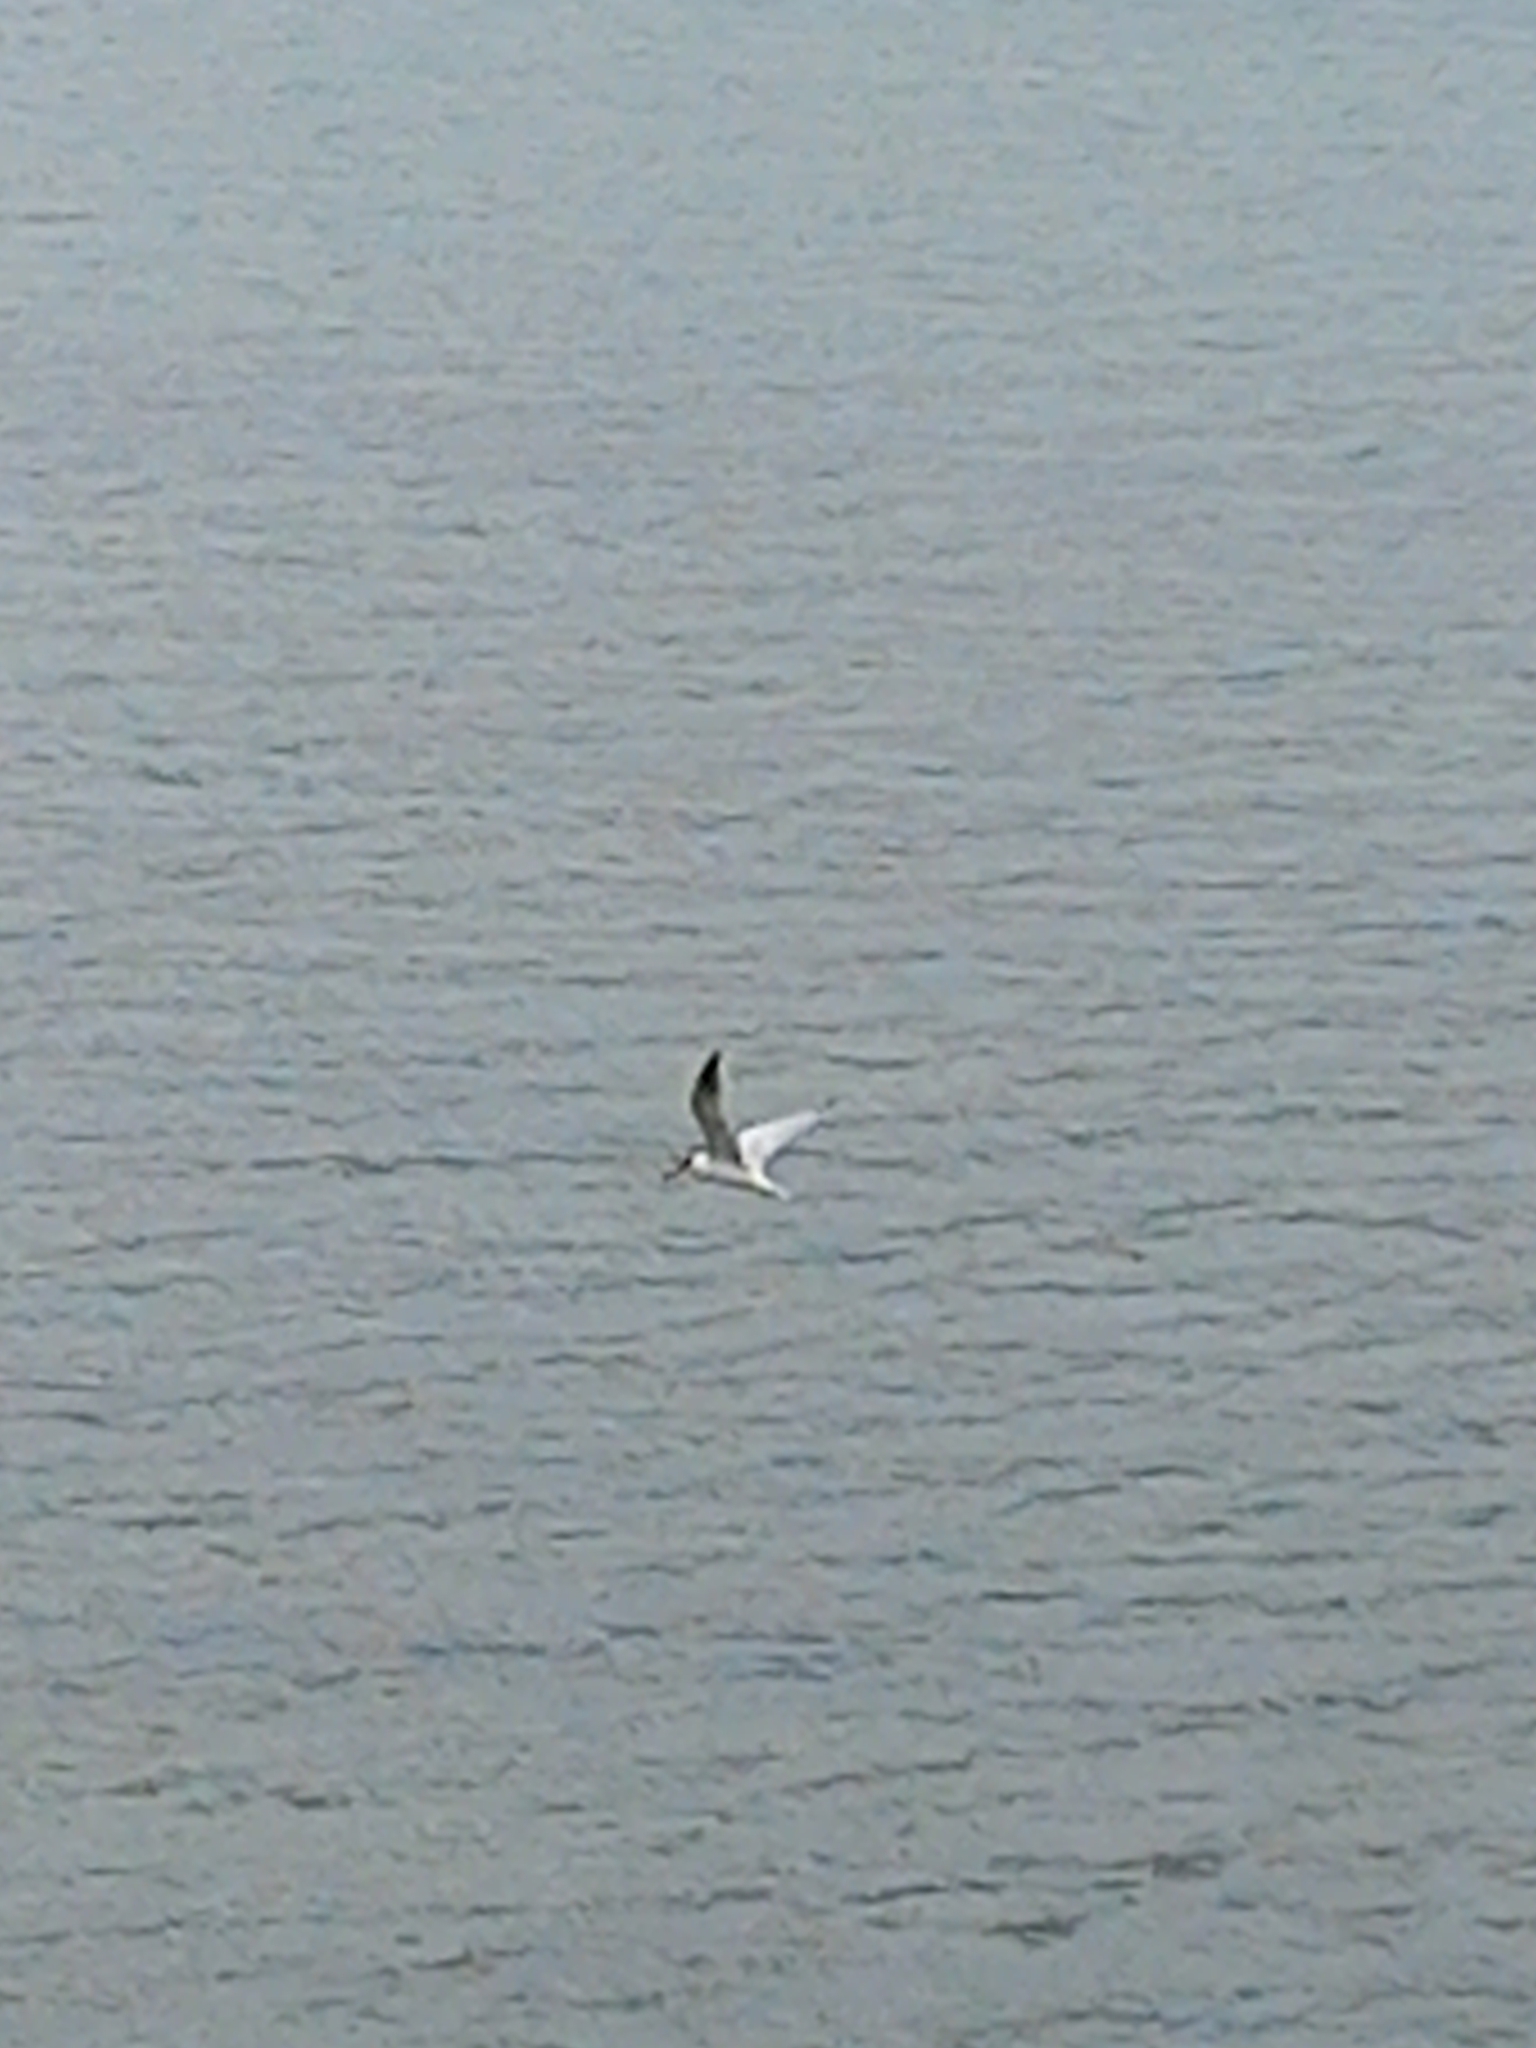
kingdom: Animalia
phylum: Chordata
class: Aves
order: Charadriiformes
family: Laridae
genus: Hydroprogne
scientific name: Hydroprogne caspia
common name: Caspian tern
